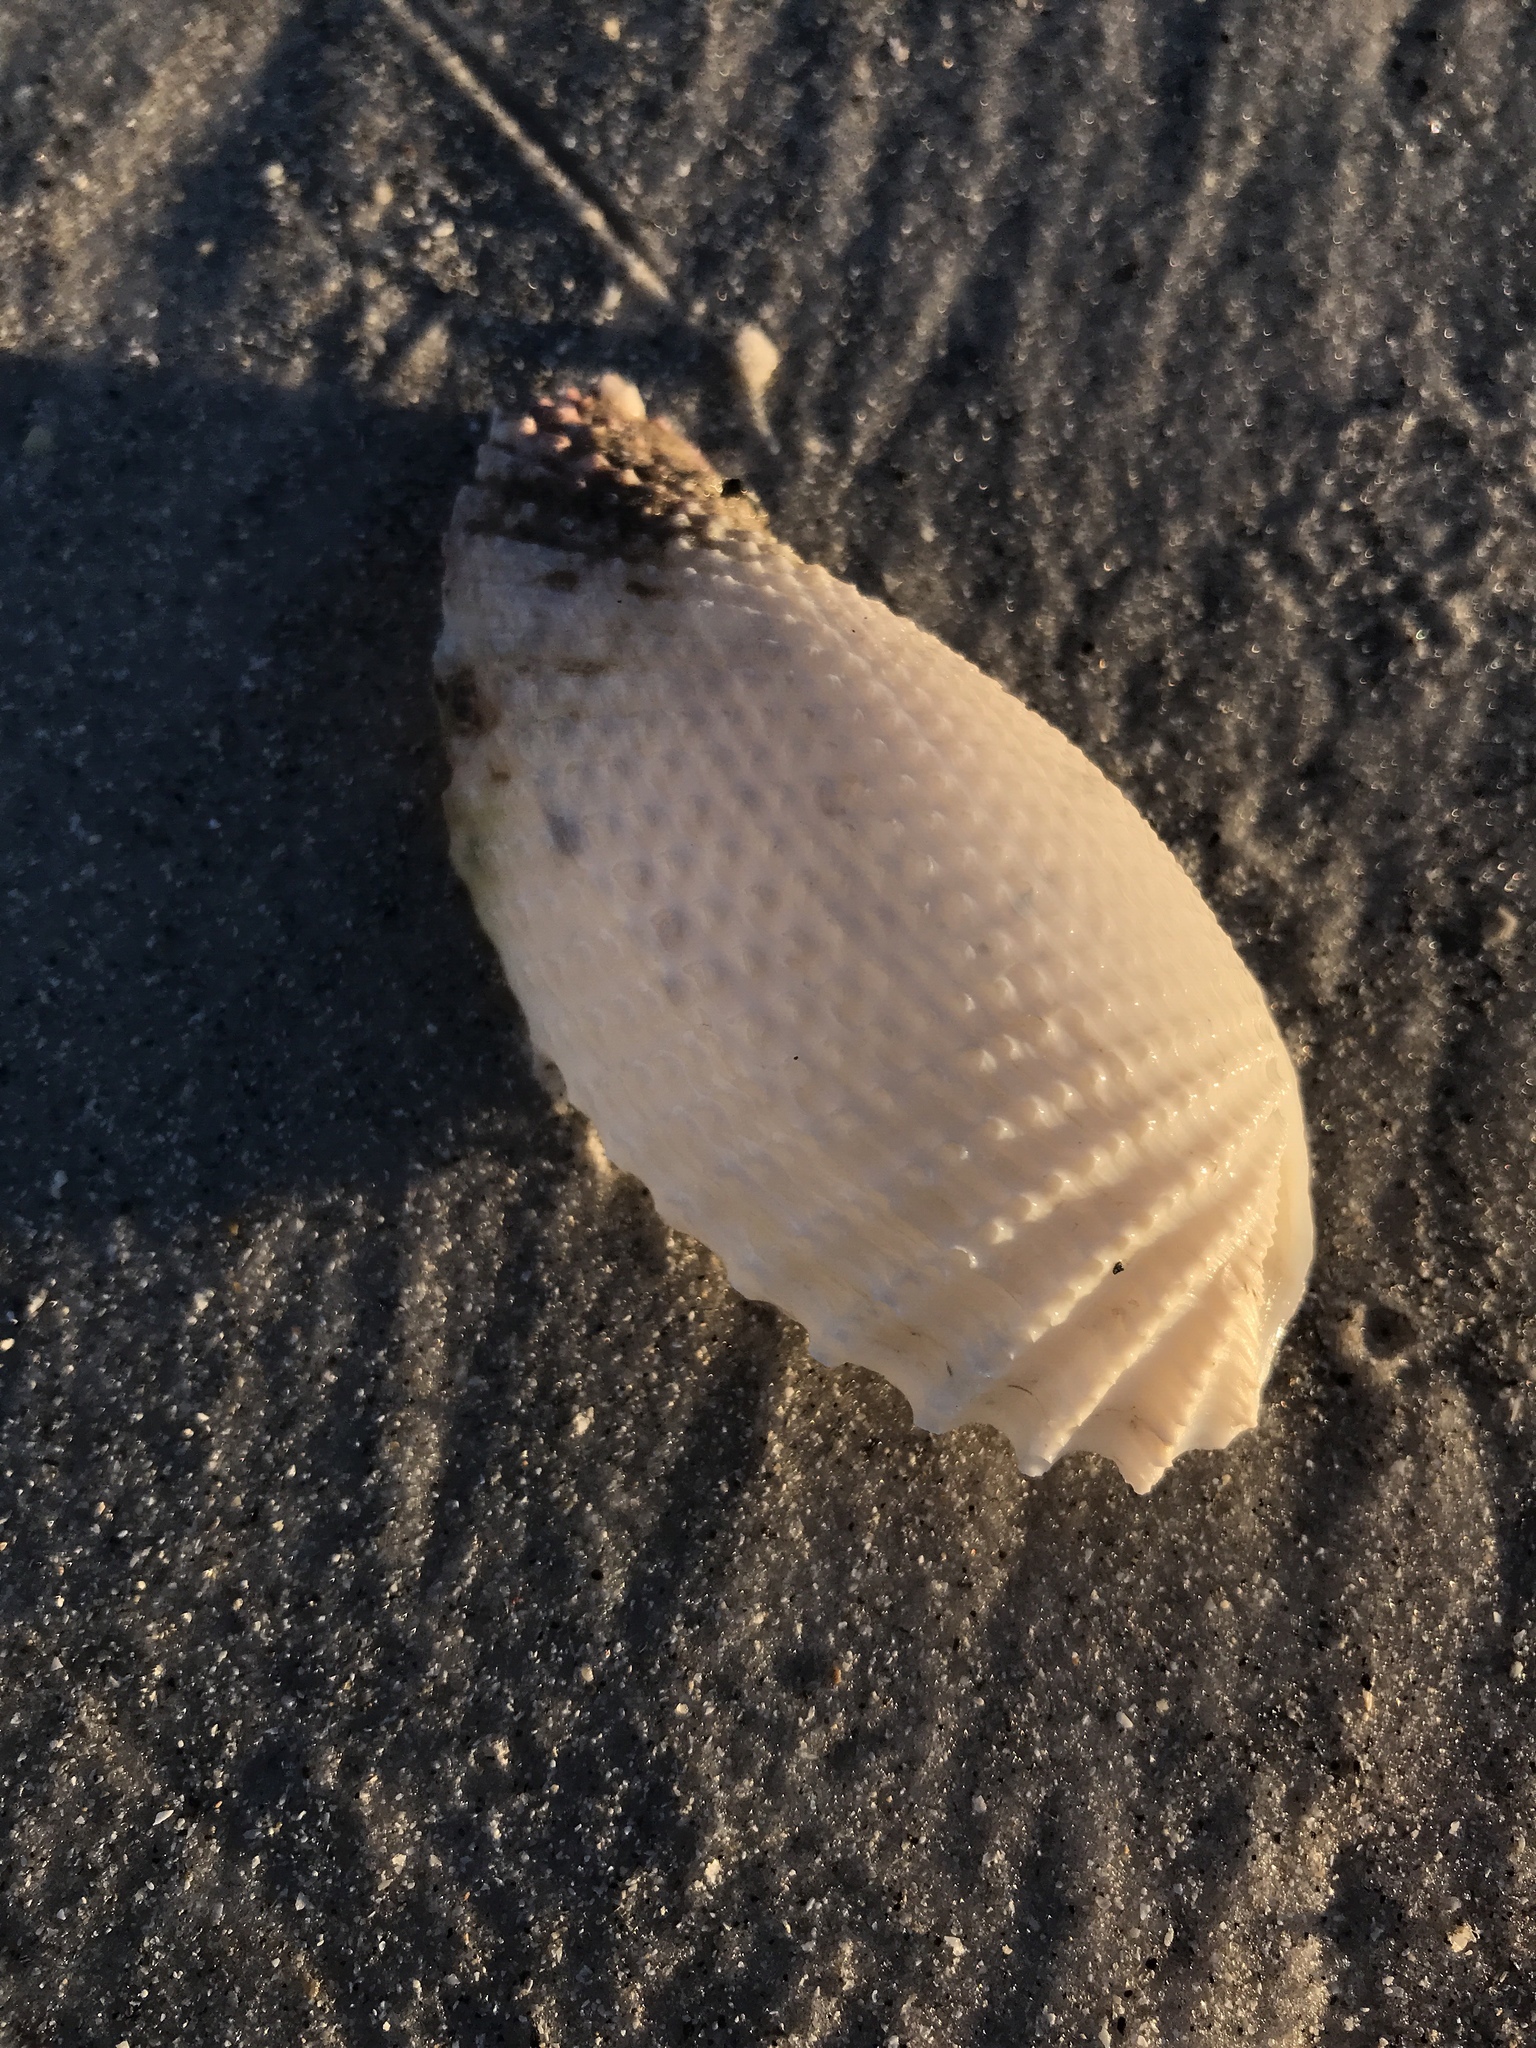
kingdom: Animalia
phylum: Mollusca
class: Bivalvia
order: Myida
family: Pholadidae
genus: Cyrtopleura
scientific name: Cyrtopleura costata
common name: Angel wing
